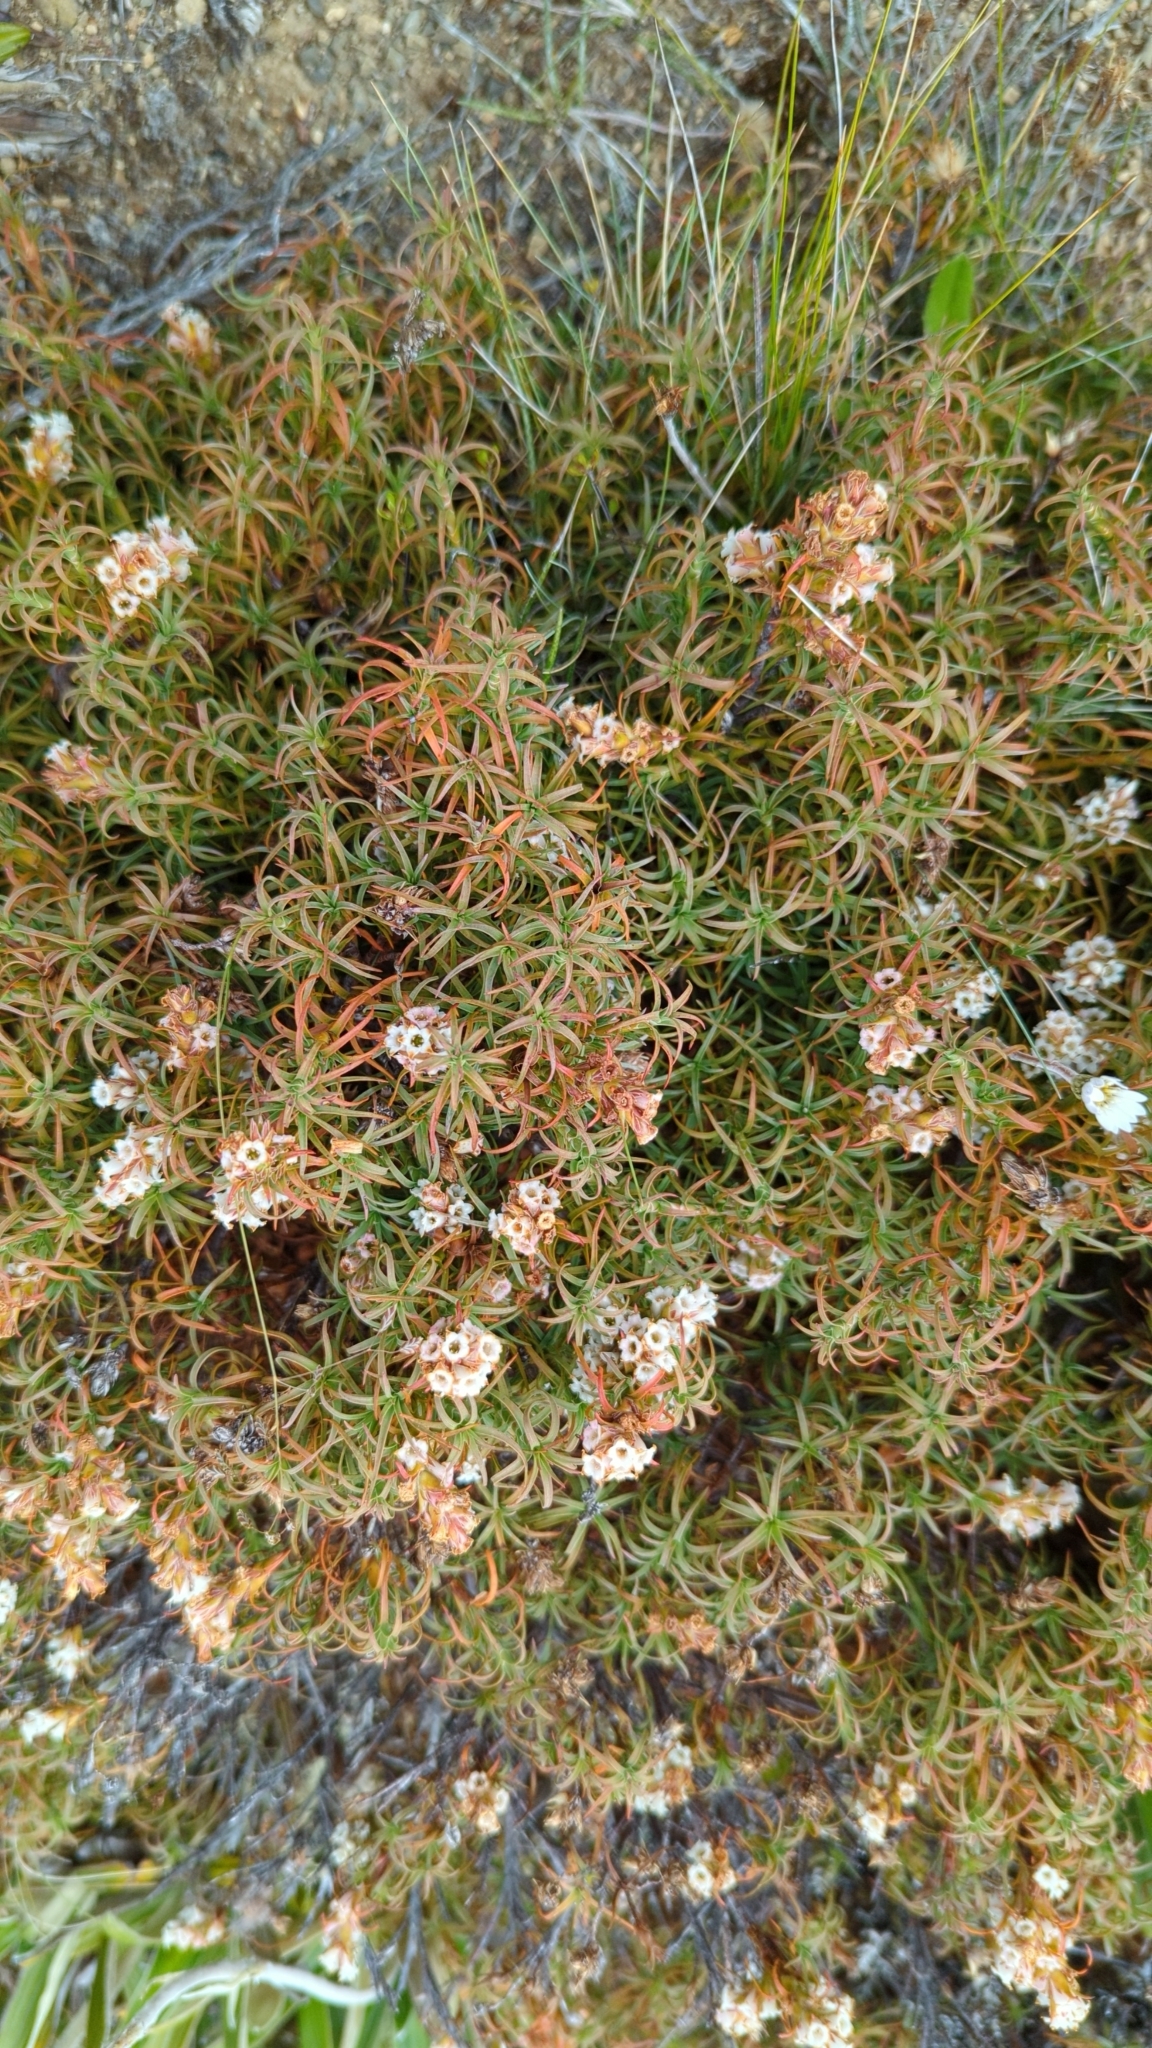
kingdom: Plantae
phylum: Tracheophyta
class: Magnoliopsida
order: Ericales
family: Ericaceae
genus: Dracophyllum
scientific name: Dracophyllum recurvum
